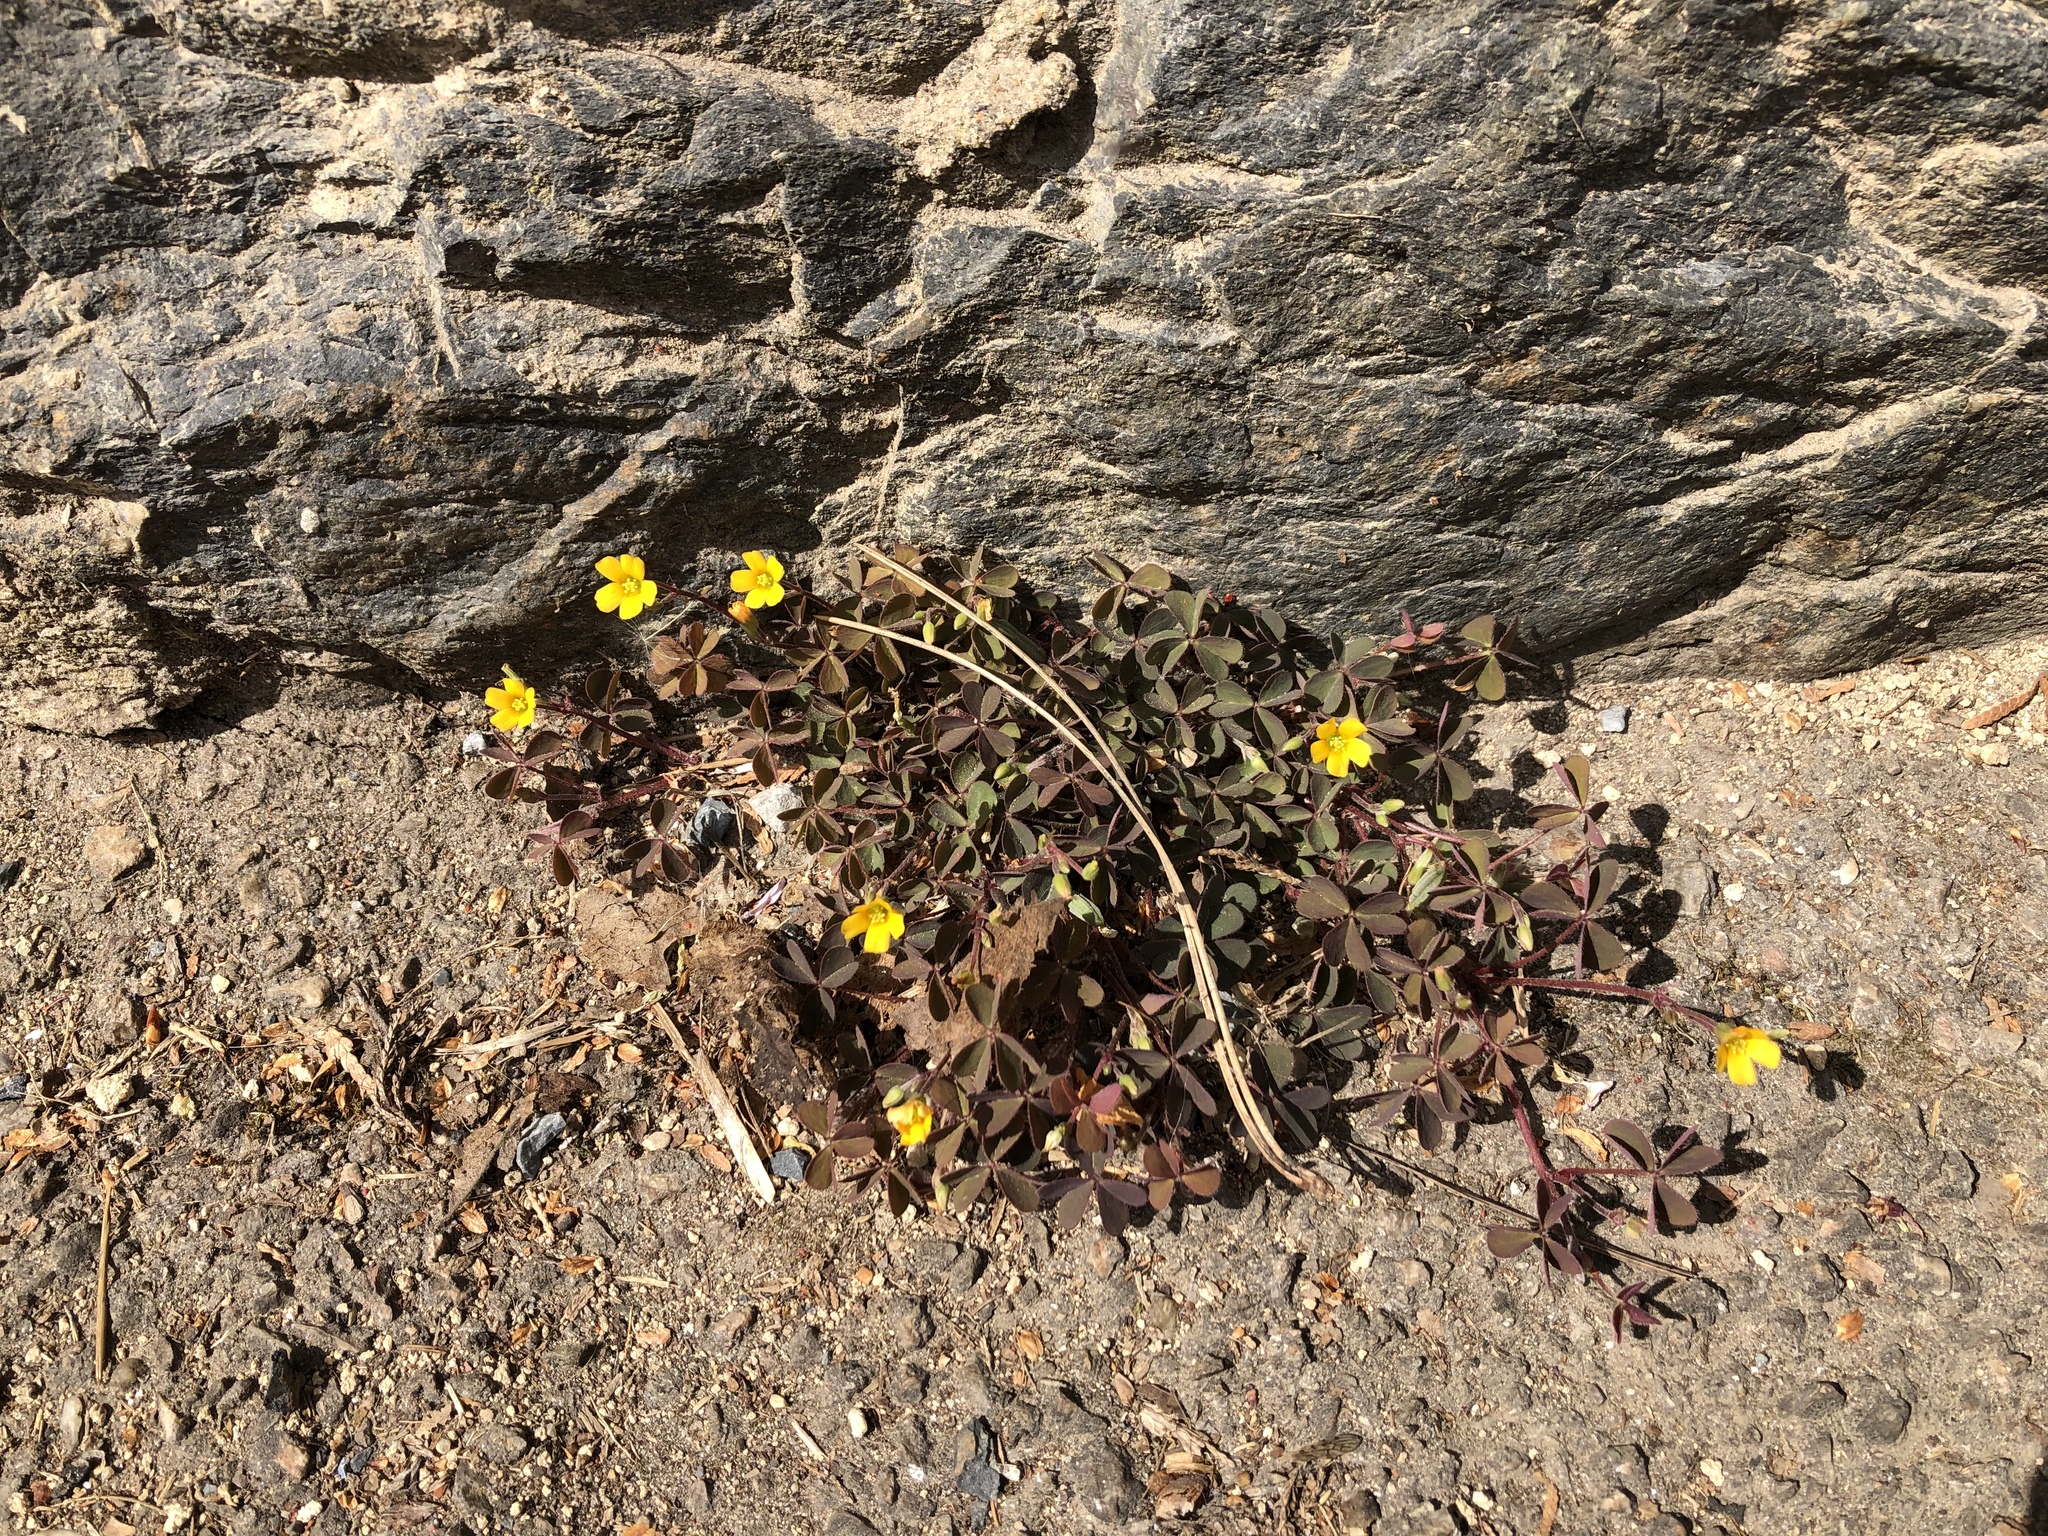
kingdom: Plantae
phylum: Tracheophyta
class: Magnoliopsida
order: Oxalidales
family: Oxalidaceae
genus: Oxalis
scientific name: Oxalis corniculata
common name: Procumbent yellow-sorrel
